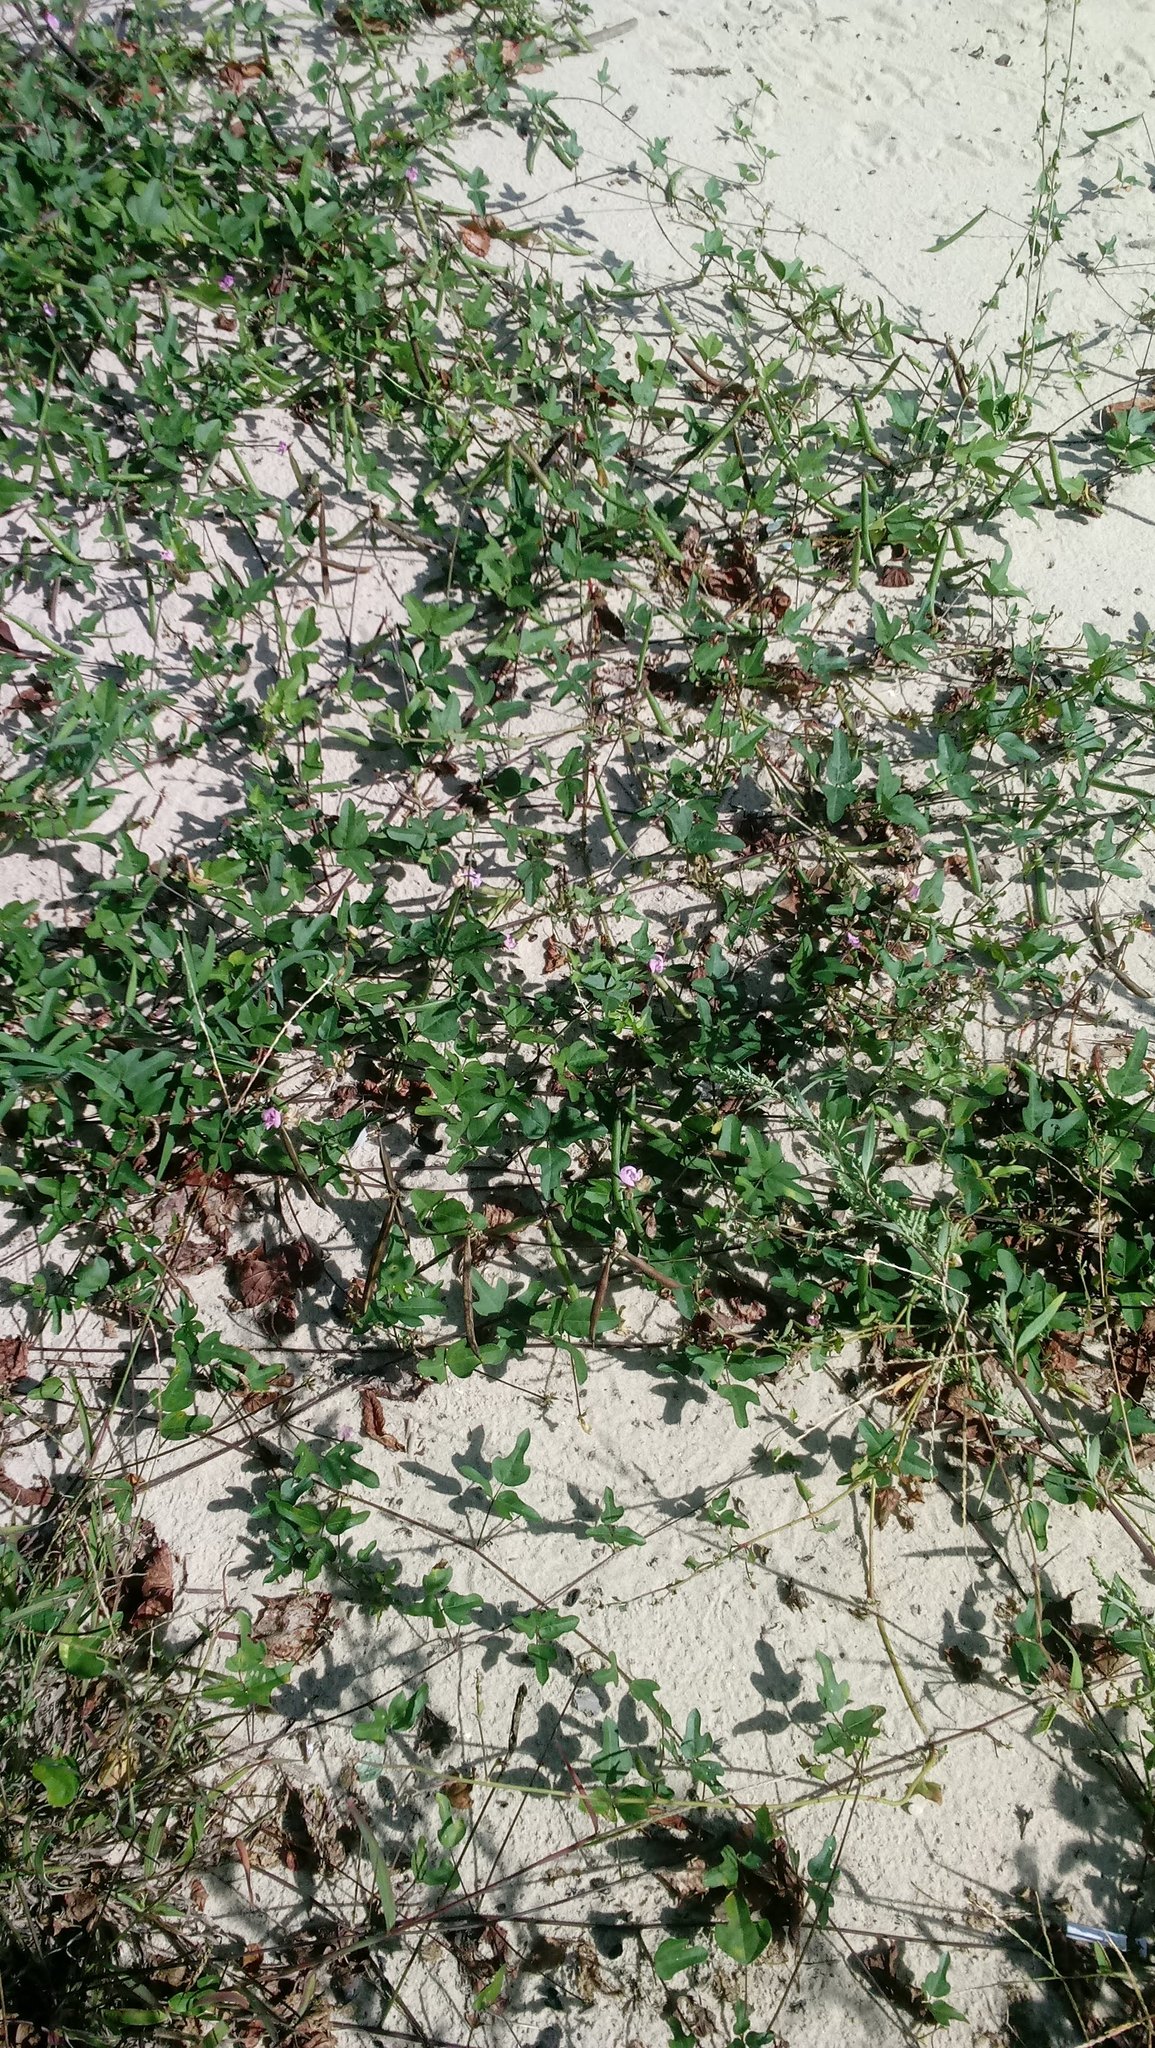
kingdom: Plantae
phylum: Tracheophyta
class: Magnoliopsida
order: Fabales
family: Fabaceae
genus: Strophostyles
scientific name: Strophostyles helvola
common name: Trailing wild bean
